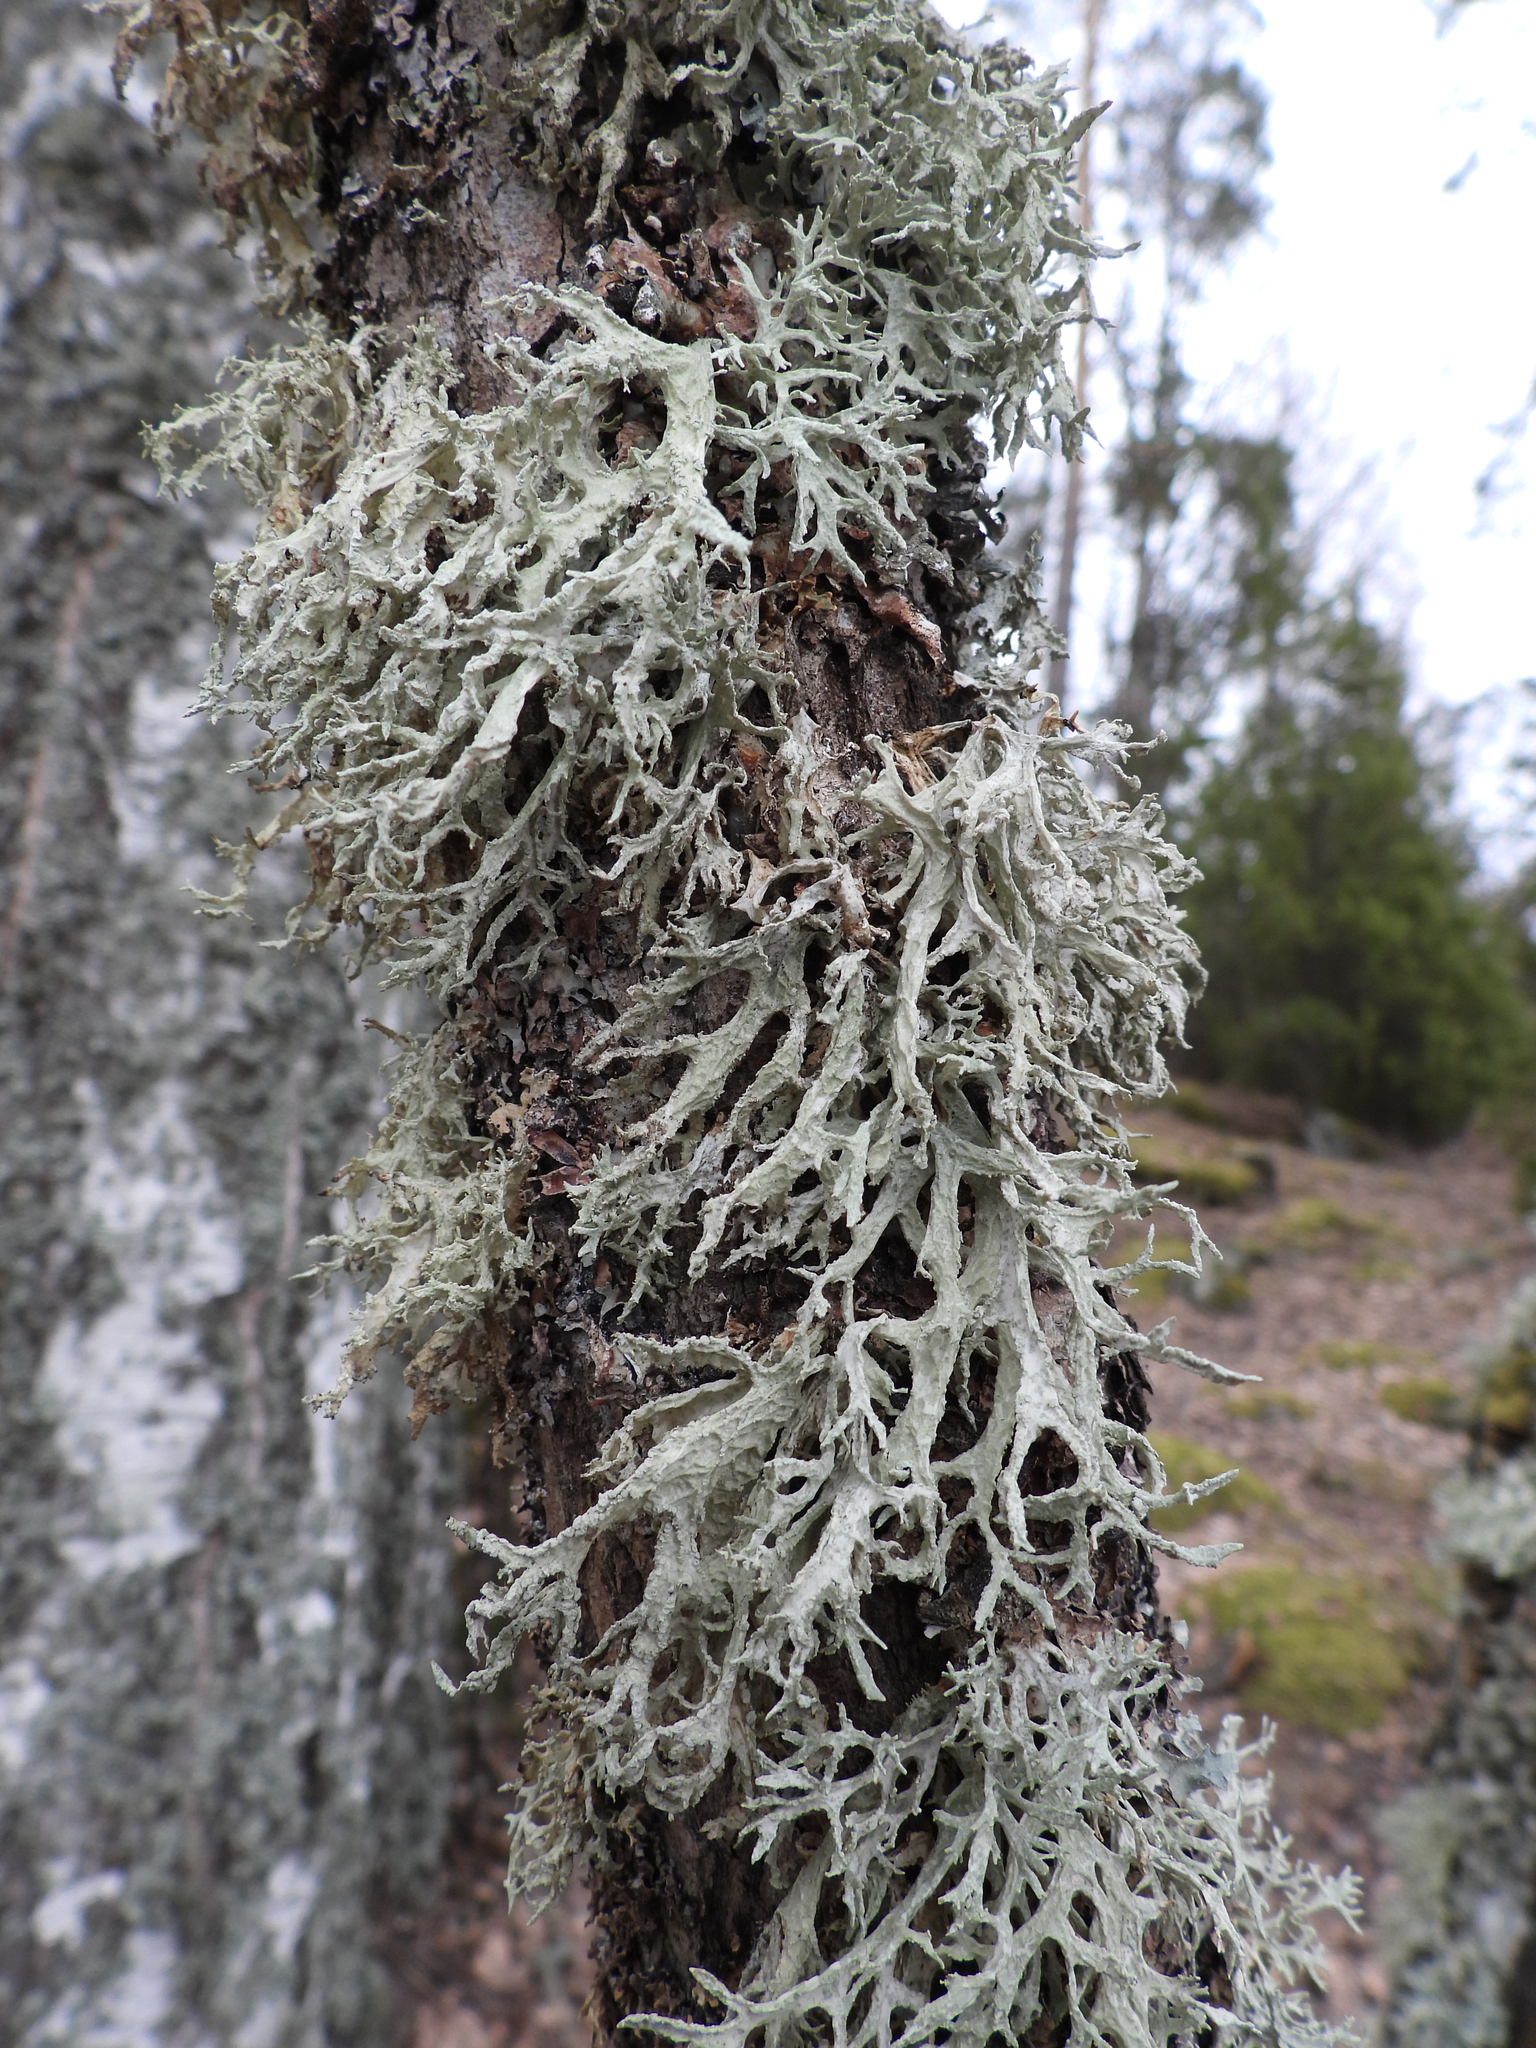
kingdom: Fungi
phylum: Ascomycota
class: Lecanoromycetes
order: Lecanorales
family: Parmeliaceae
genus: Evernia
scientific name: Evernia prunastri
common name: Oak moss
